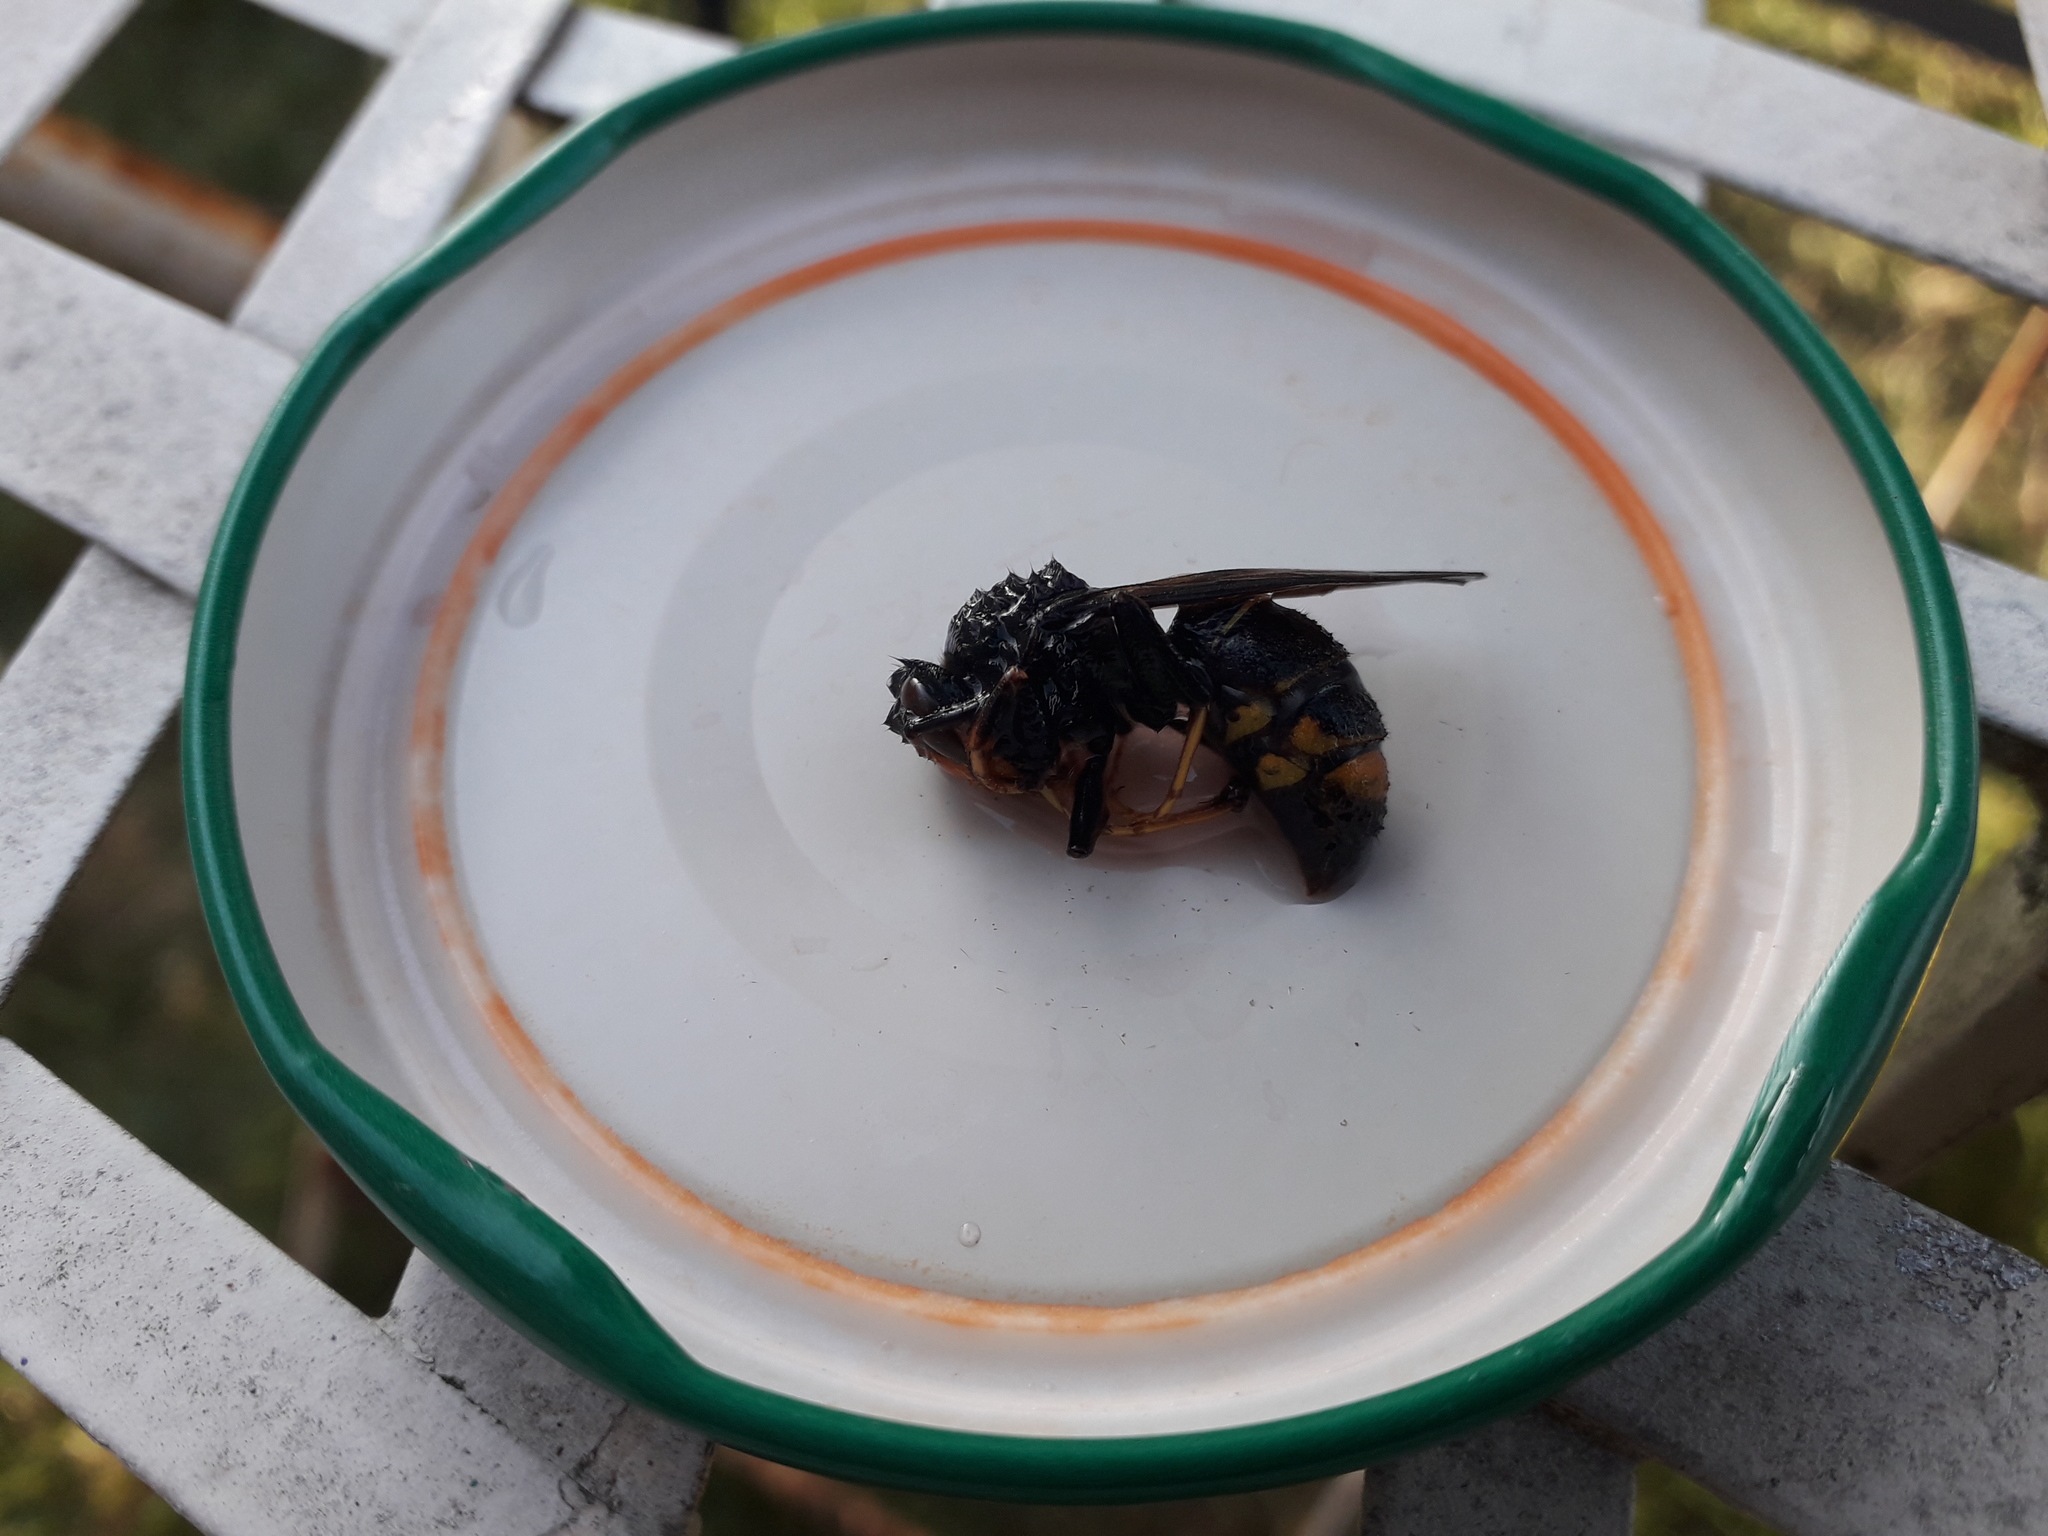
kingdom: Animalia
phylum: Arthropoda
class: Insecta
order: Hymenoptera
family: Vespidae
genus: Vespa
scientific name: Vespa velutina
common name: Asian hornet
